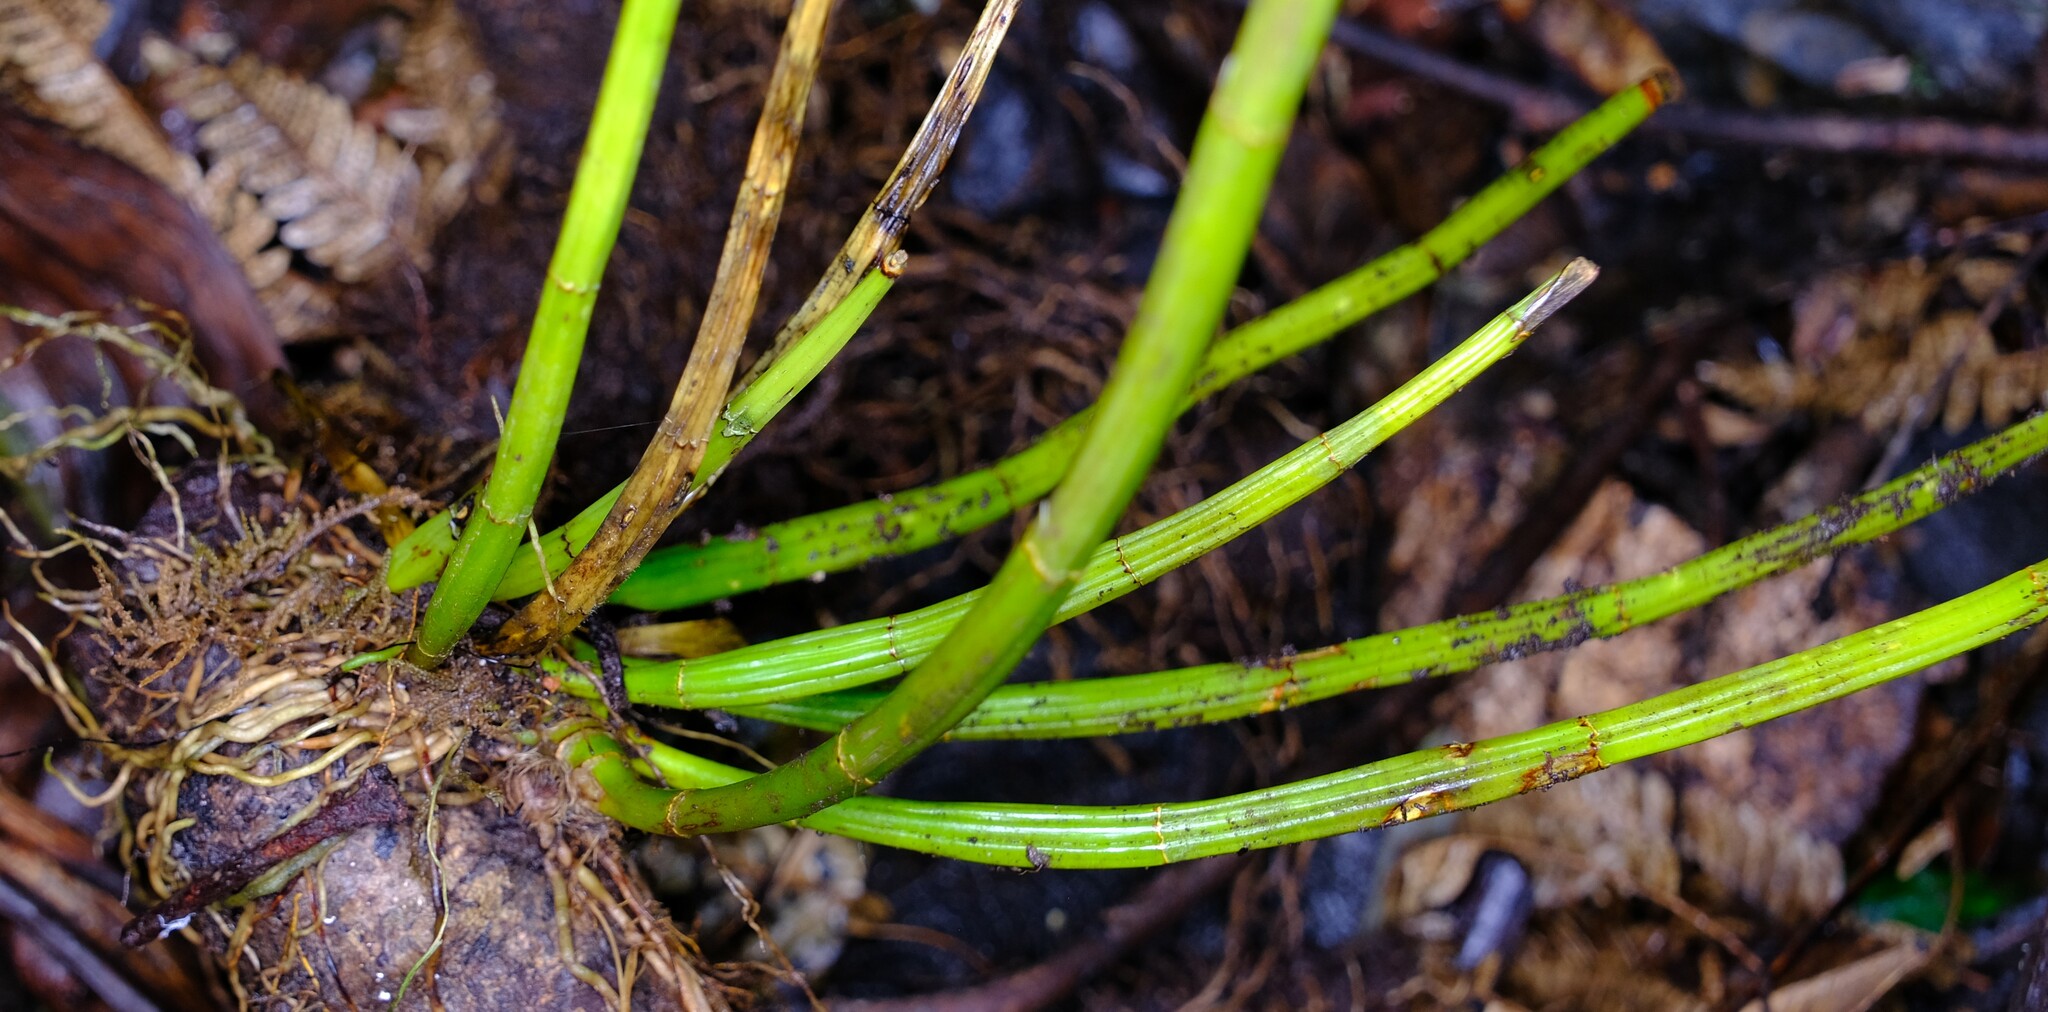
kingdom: Plantae
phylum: Tracheophyta
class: Liliopsida
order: Asparagales
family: Orchidaceae
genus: Dendrobium
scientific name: Dendrobium gracilicaule
